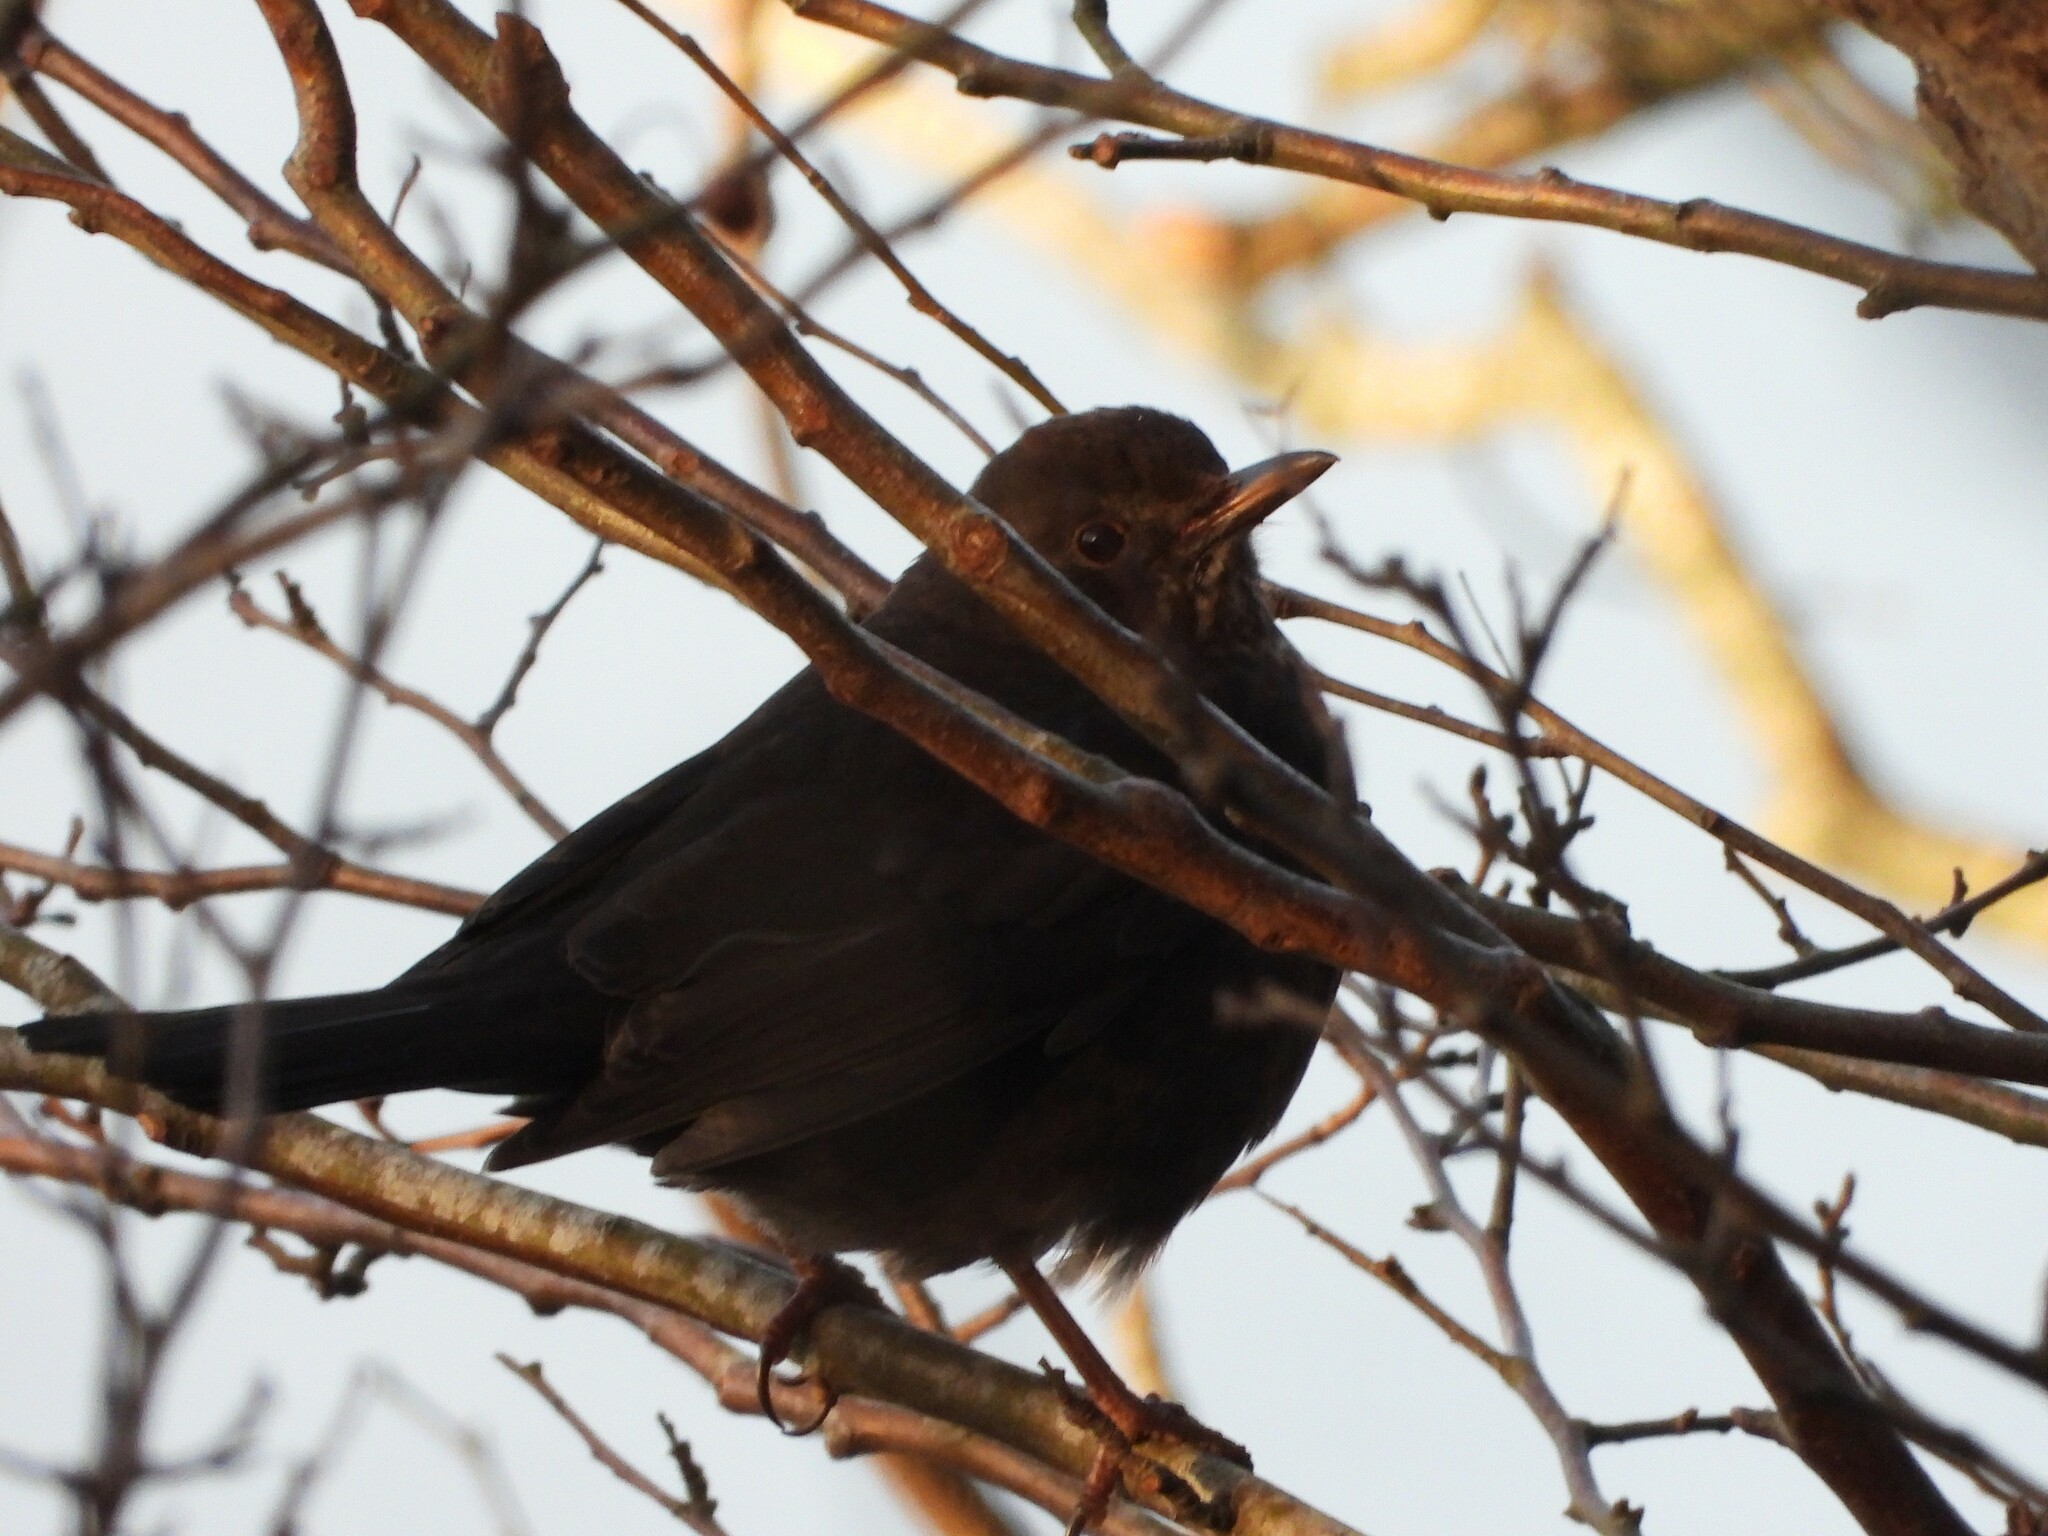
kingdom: Animalia
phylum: Chordata
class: Aves
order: Passeriformes
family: Turdidae
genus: Turdus
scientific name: Turdus merula
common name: Common blackbird
